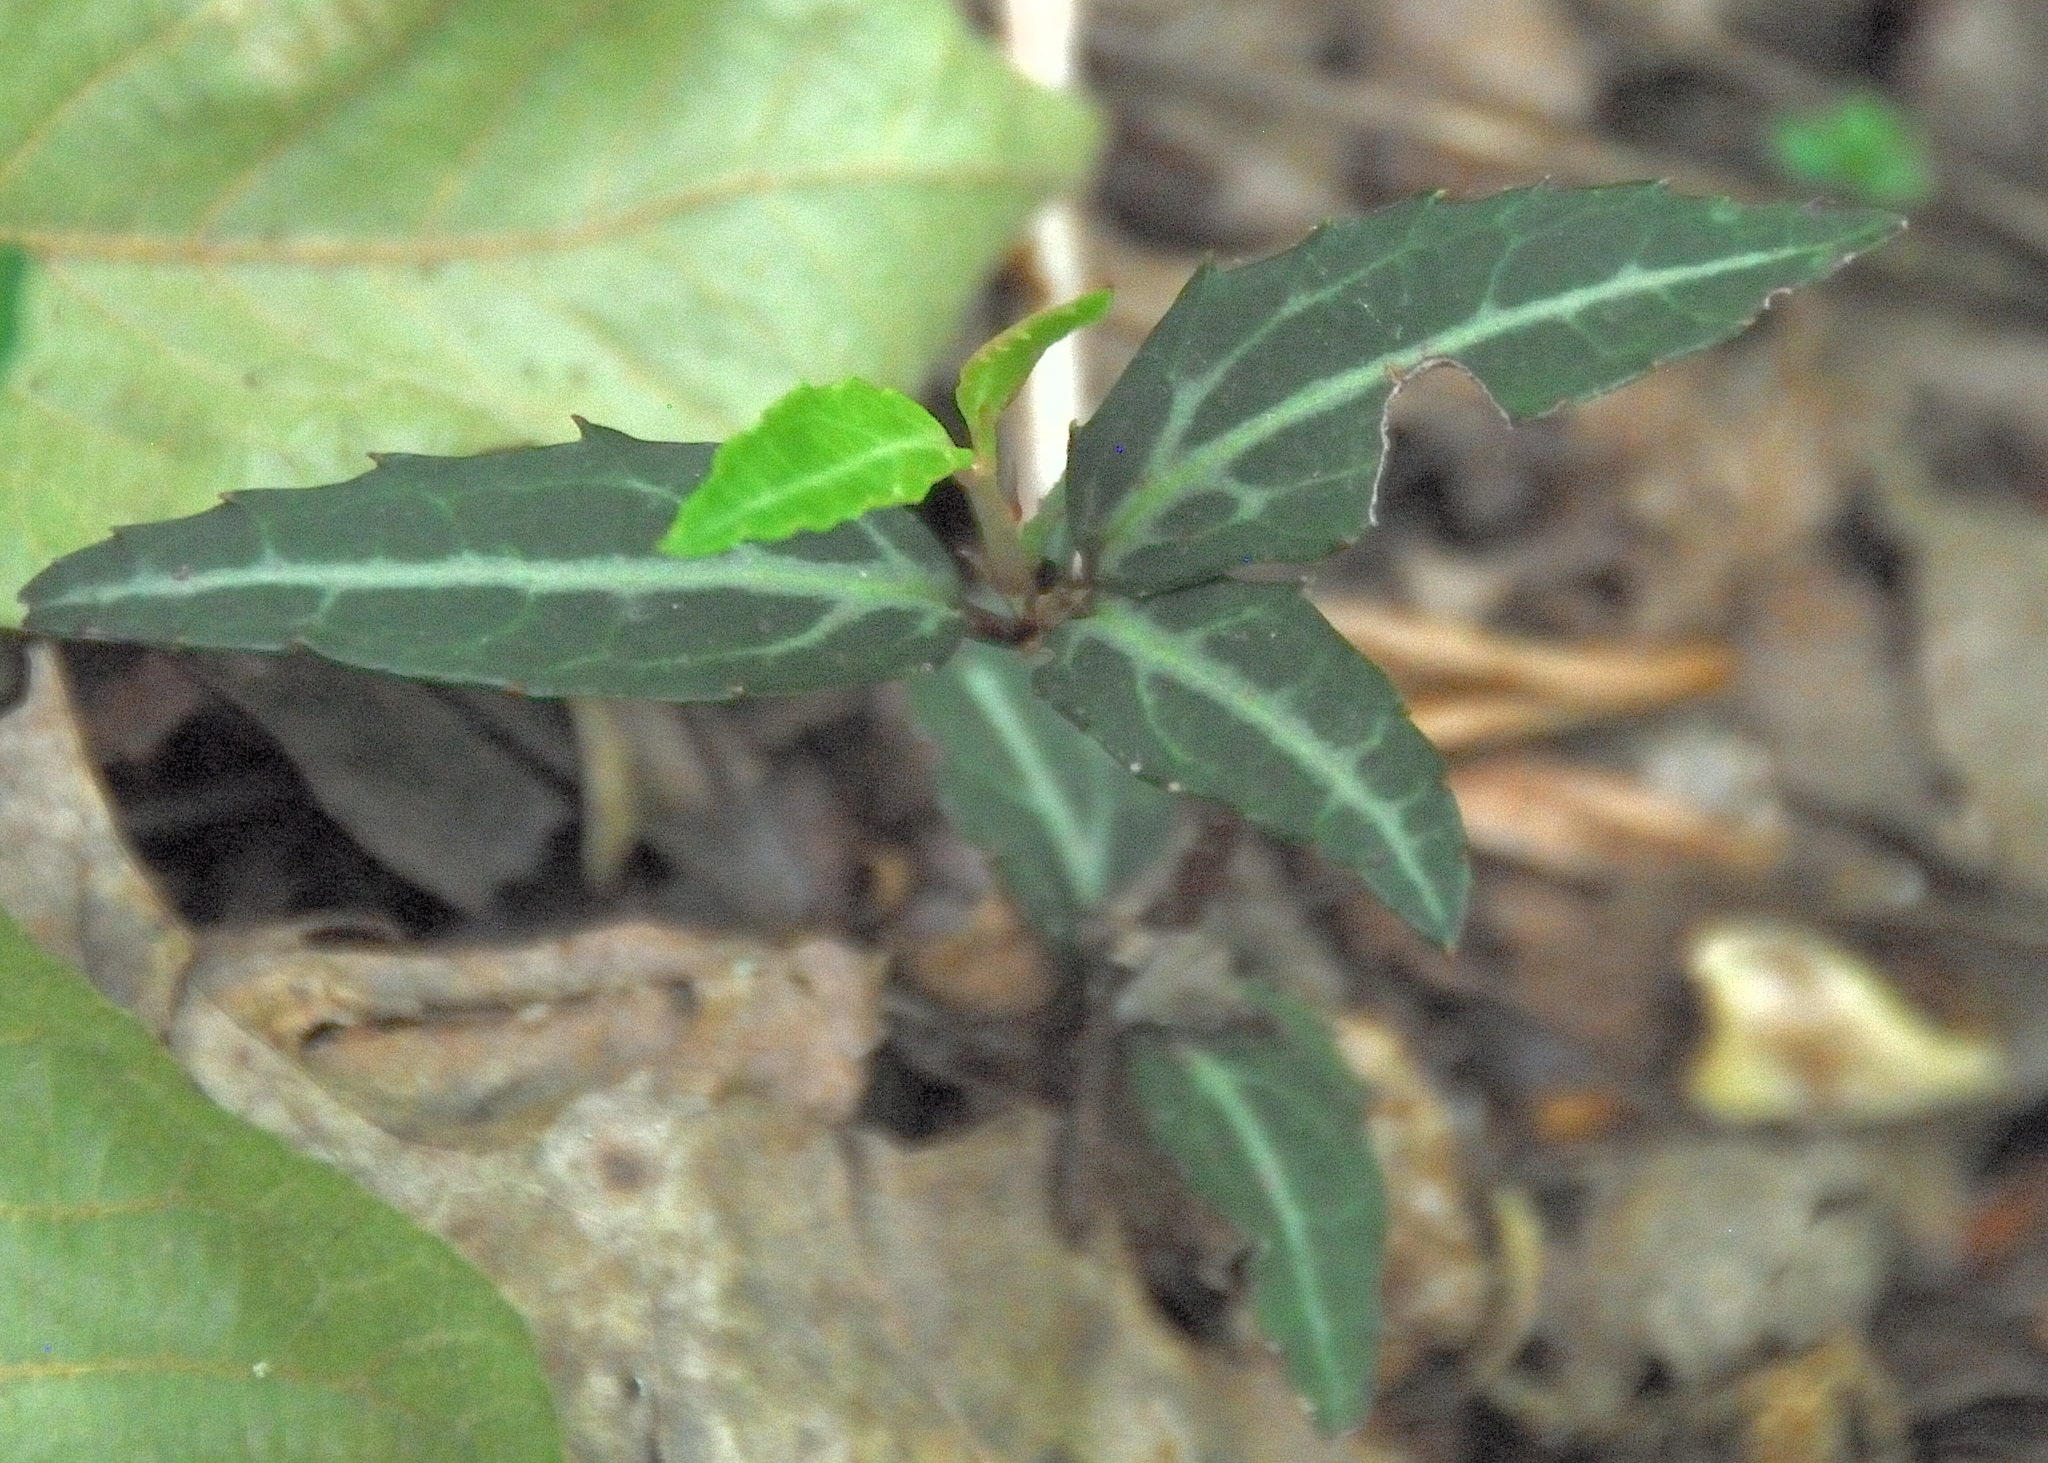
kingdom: Plantae
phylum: Tracheophyta
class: Magnoliopsida
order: Ericales
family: Ericaceae
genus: Chimaphila
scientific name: Chimaphila maculata
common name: Spotted pipsissewa
